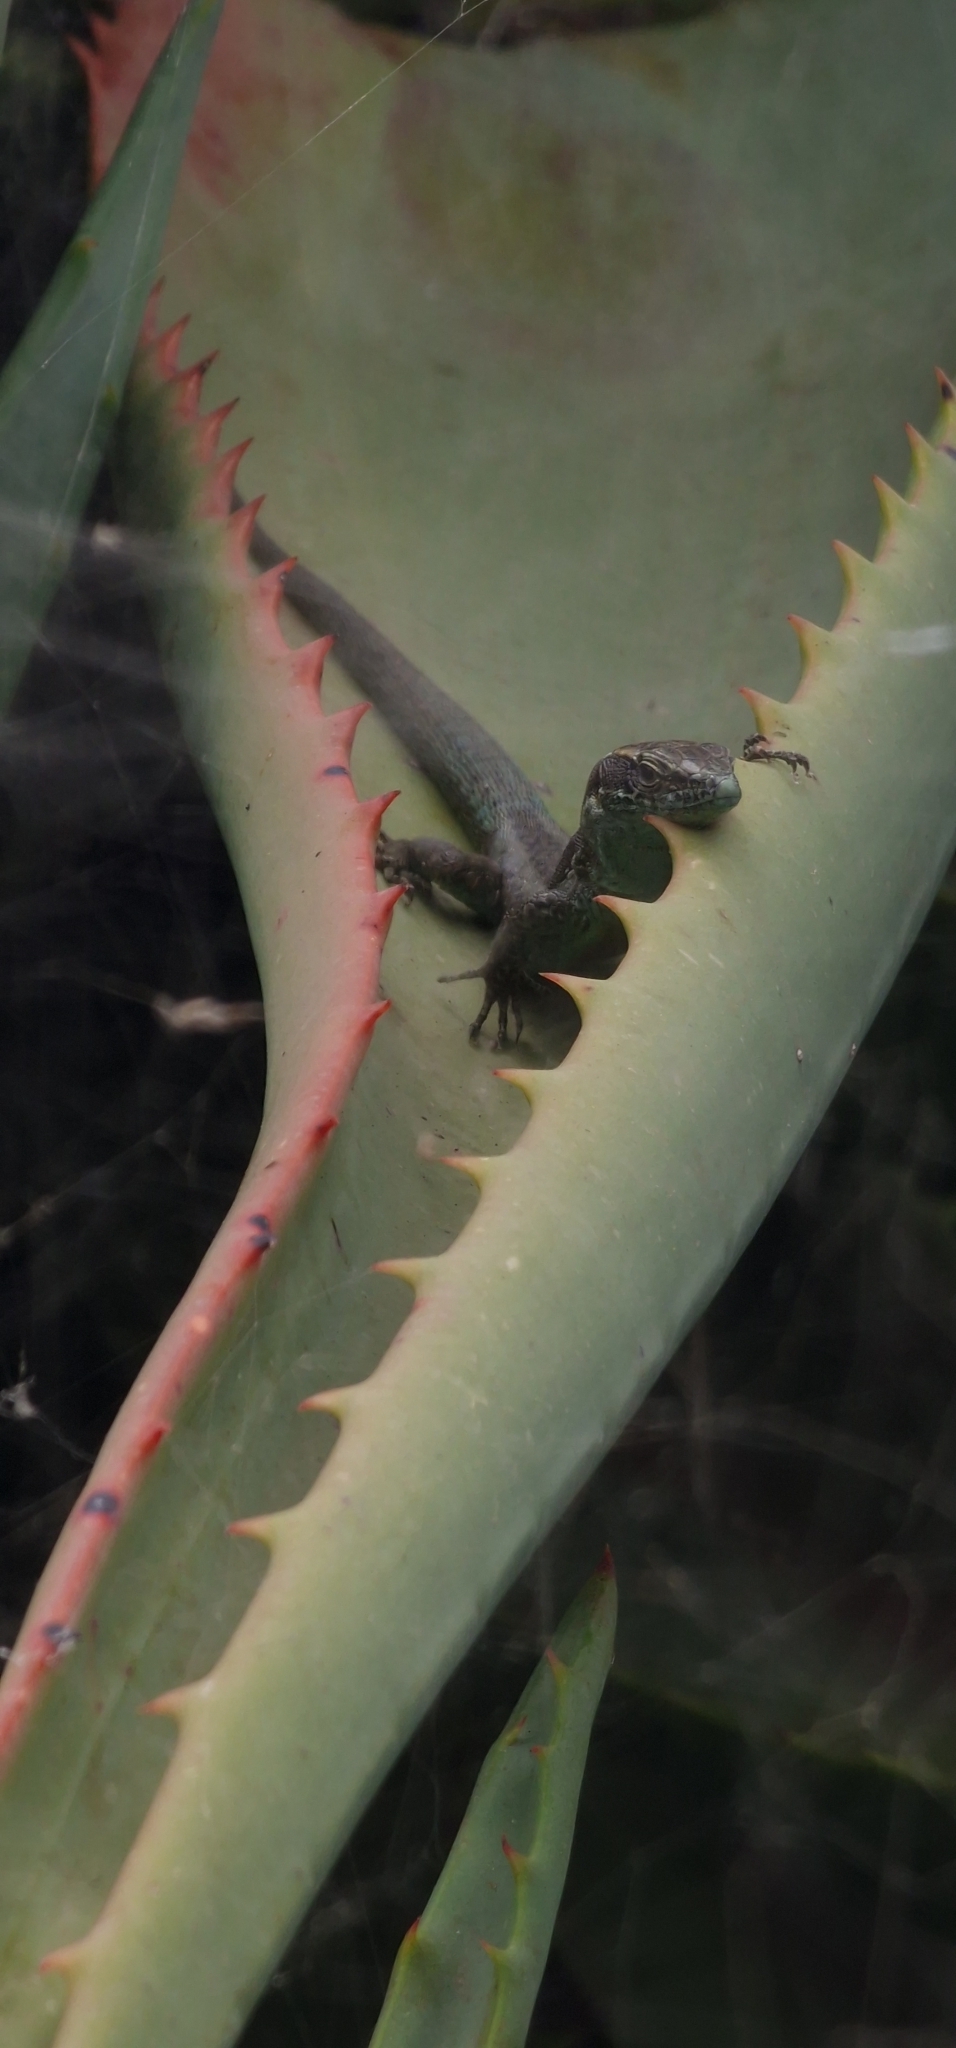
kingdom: Animalia
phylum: Chordata
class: Squamata
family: Lacertidae
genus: Teira
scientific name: Teira dugesii
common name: Madeira lizard
